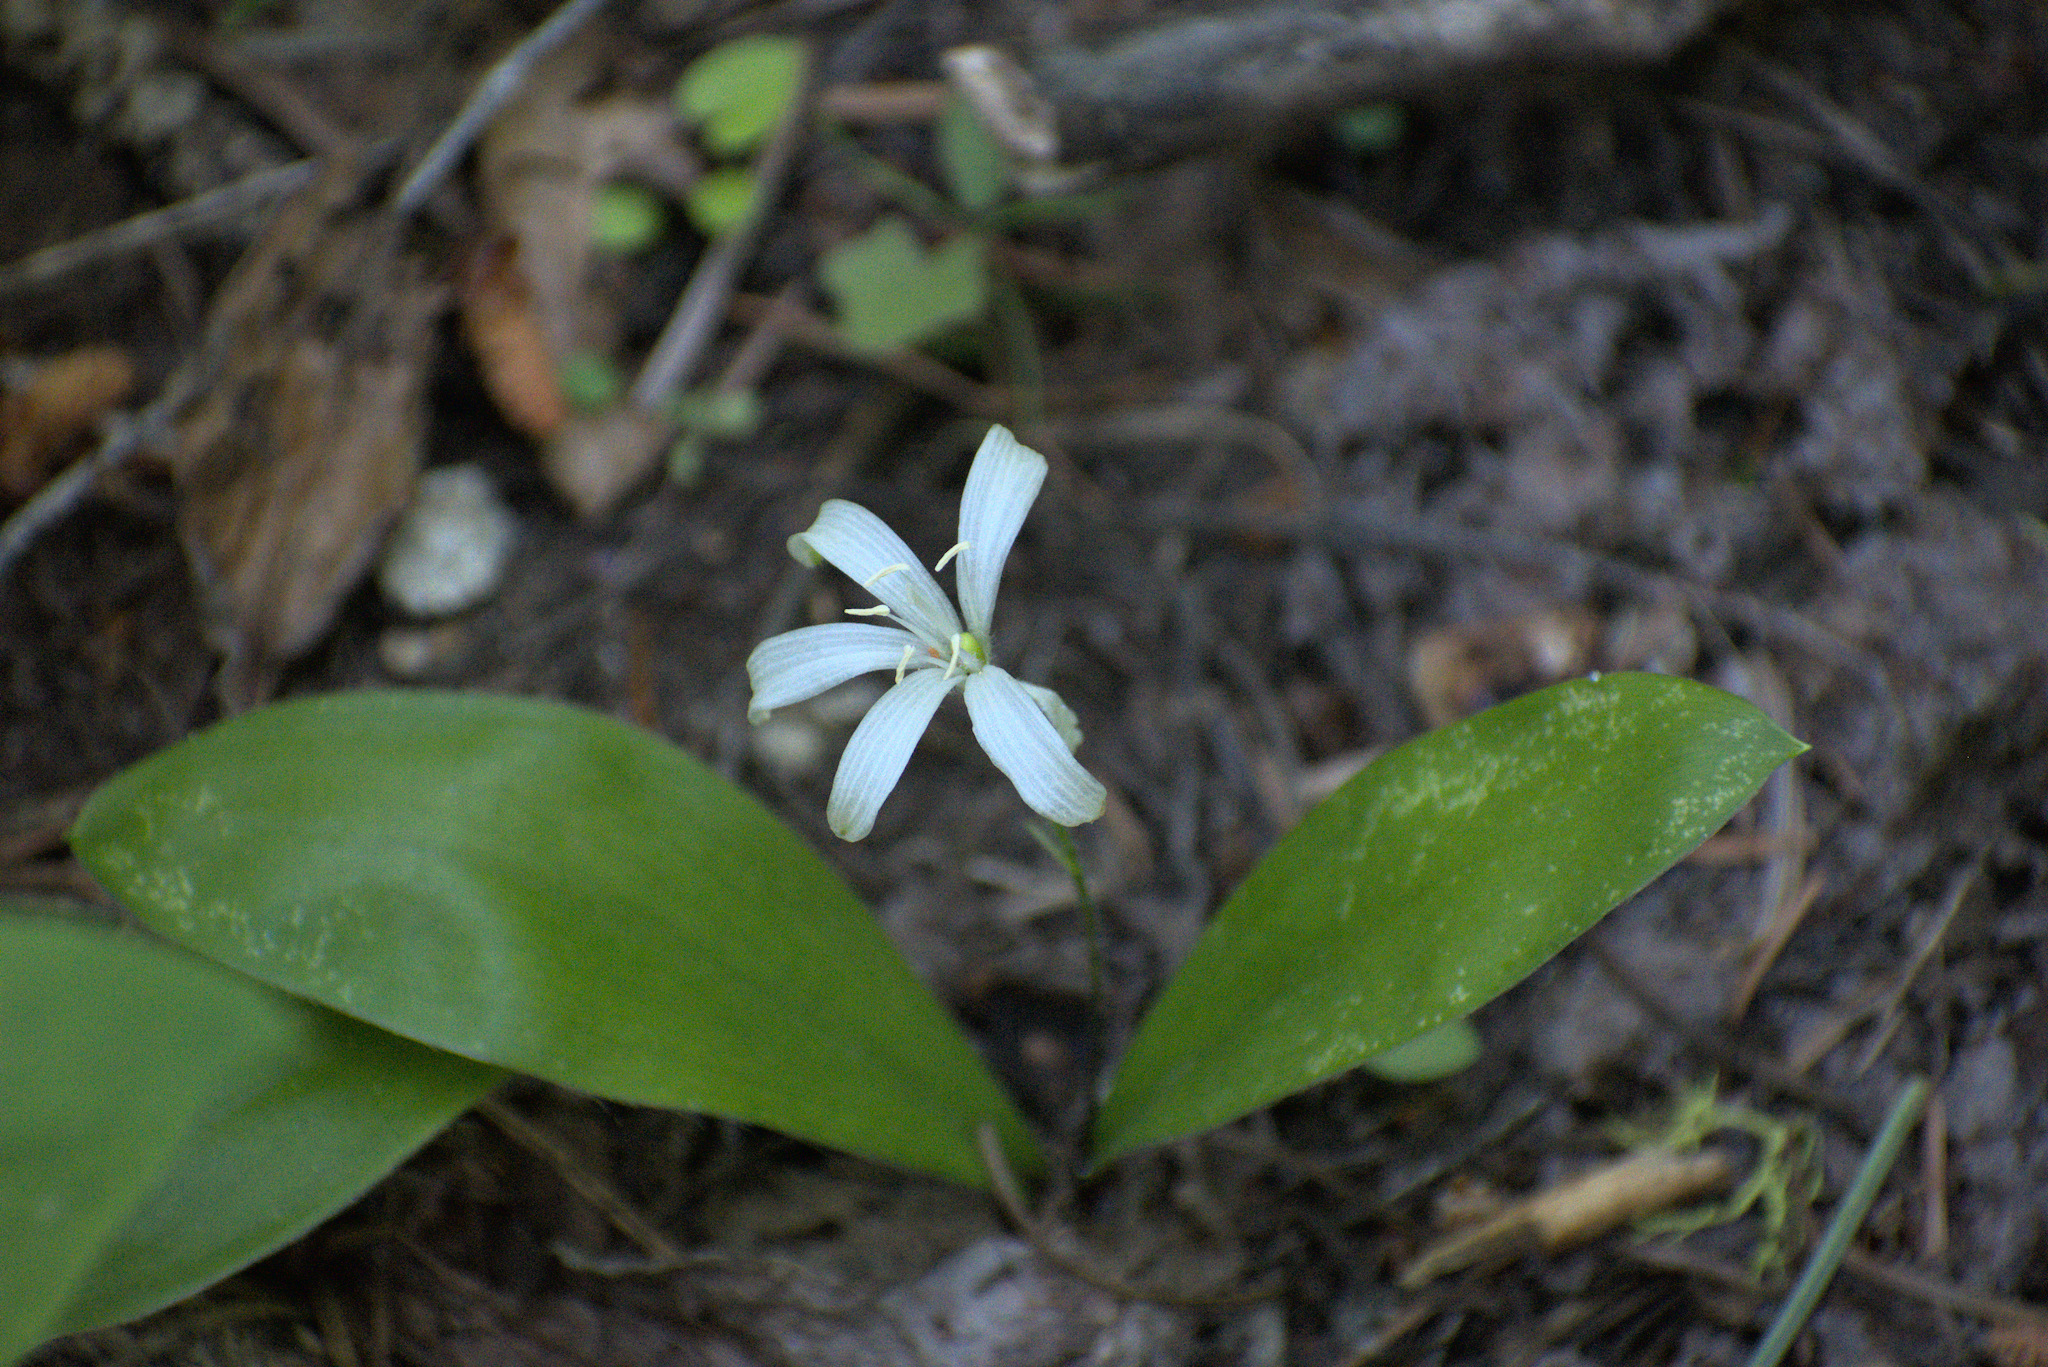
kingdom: Plantae
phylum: Tracheophyta
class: Liliopsida
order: Liliales
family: Liliaceae
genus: Clintonia
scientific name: Clintonia uniflora
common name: Queen's cup
